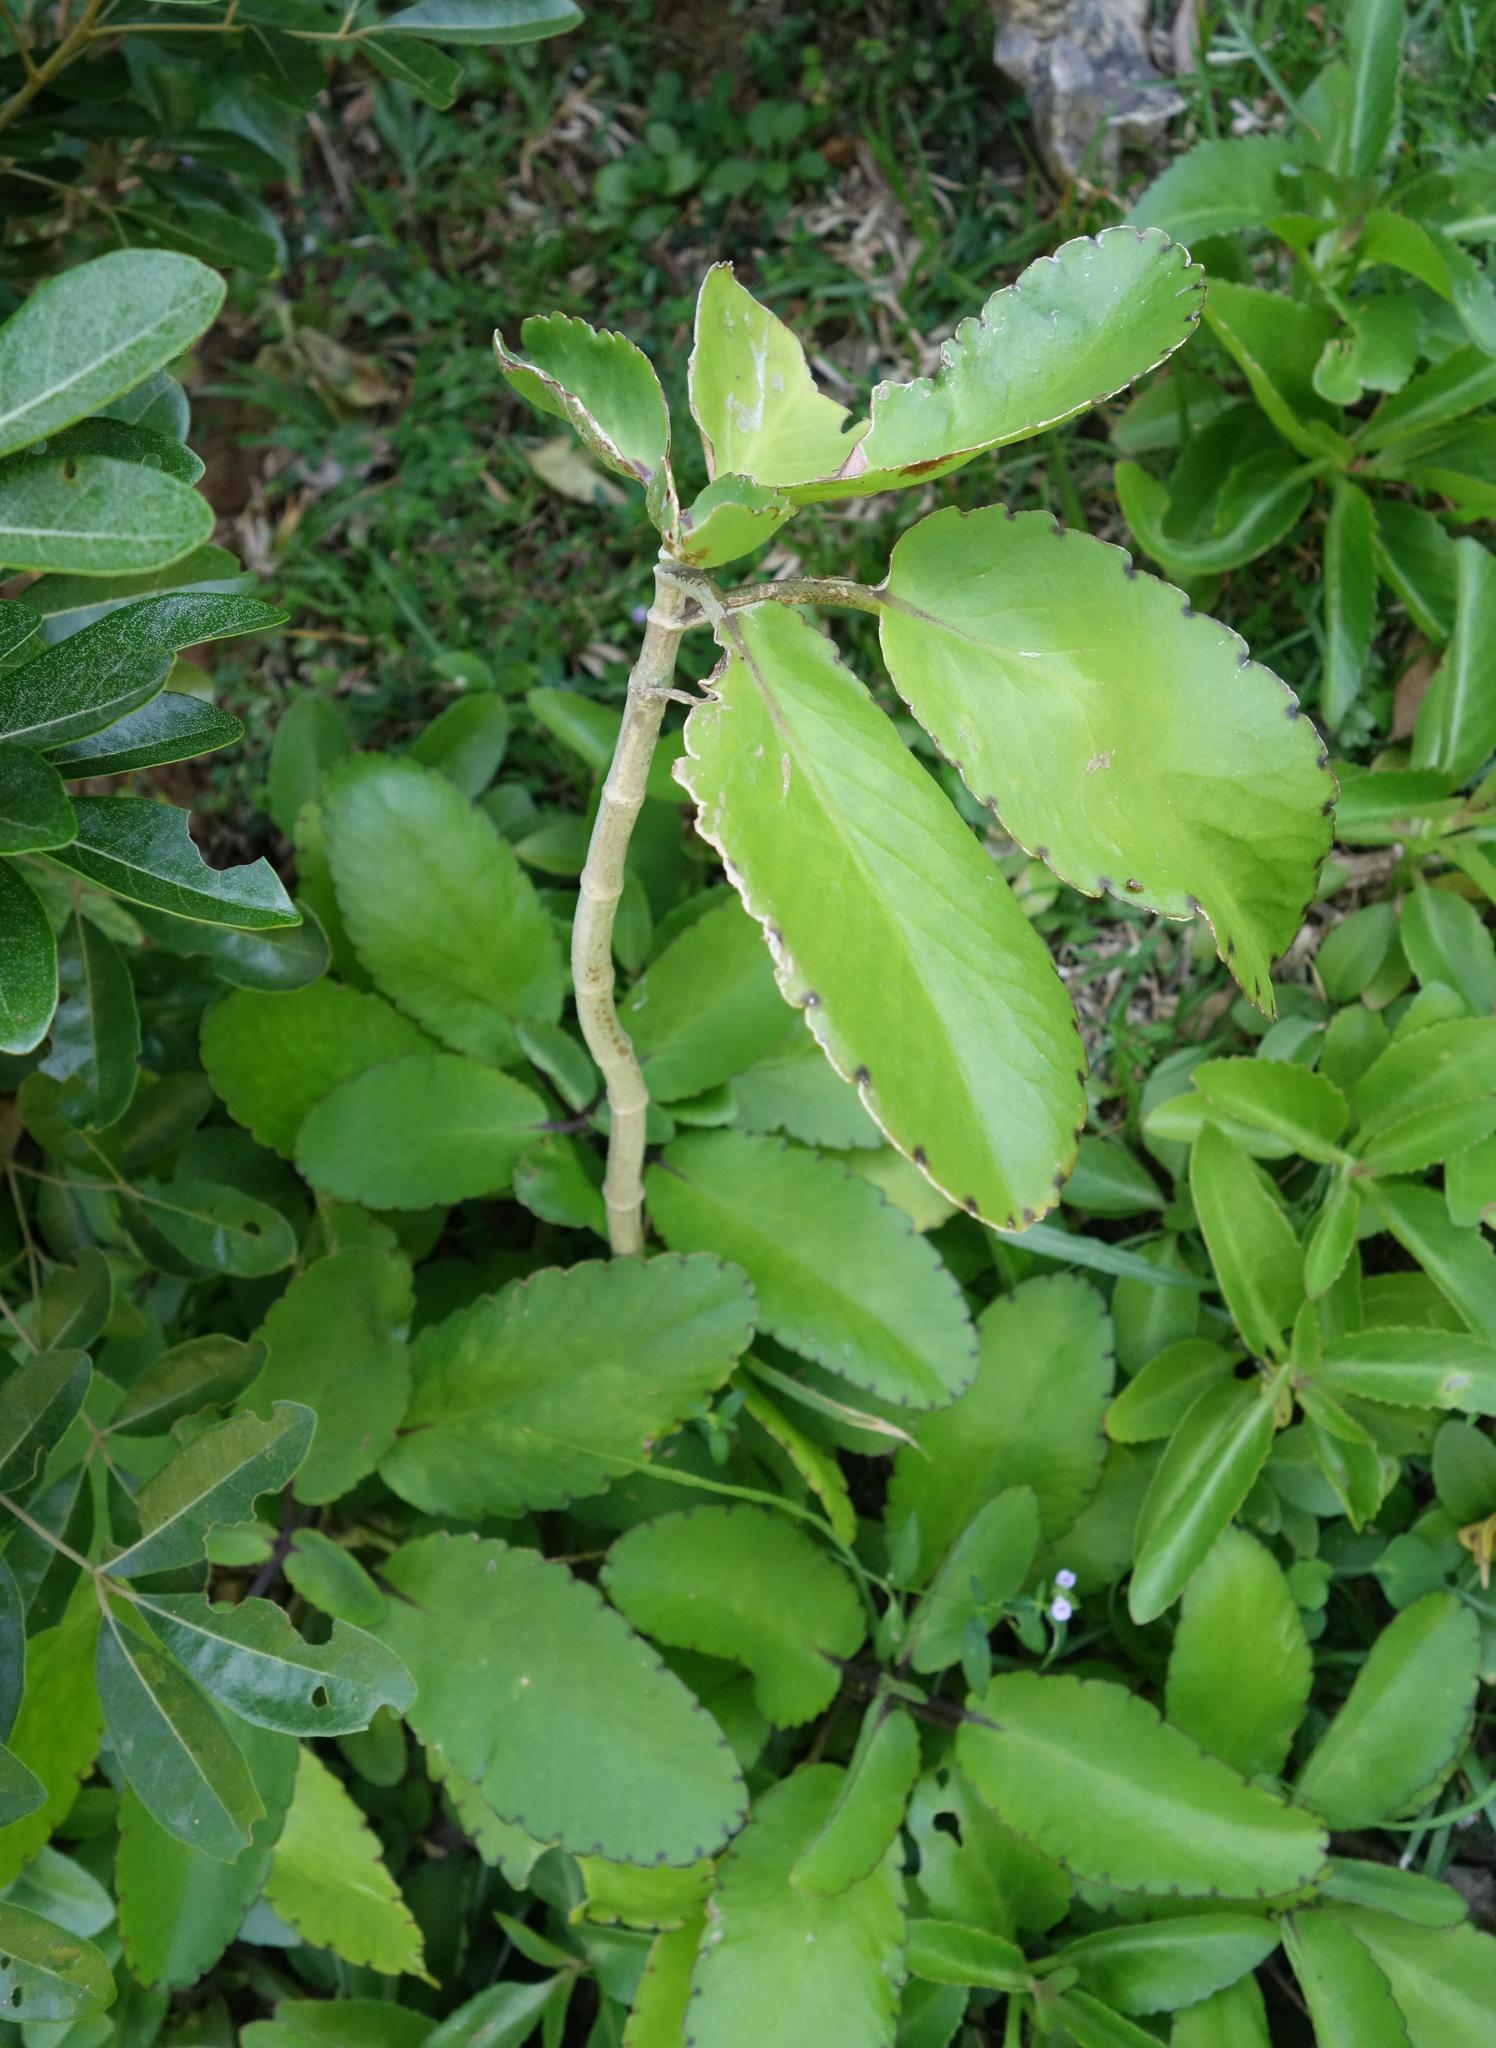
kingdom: Plantae
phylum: Tracheophyta
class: Magnoliopsida
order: Saxifragales
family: Crassulaceae
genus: Kalanchoe
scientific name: Kalanchoe pinnata
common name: Cathedral bells
